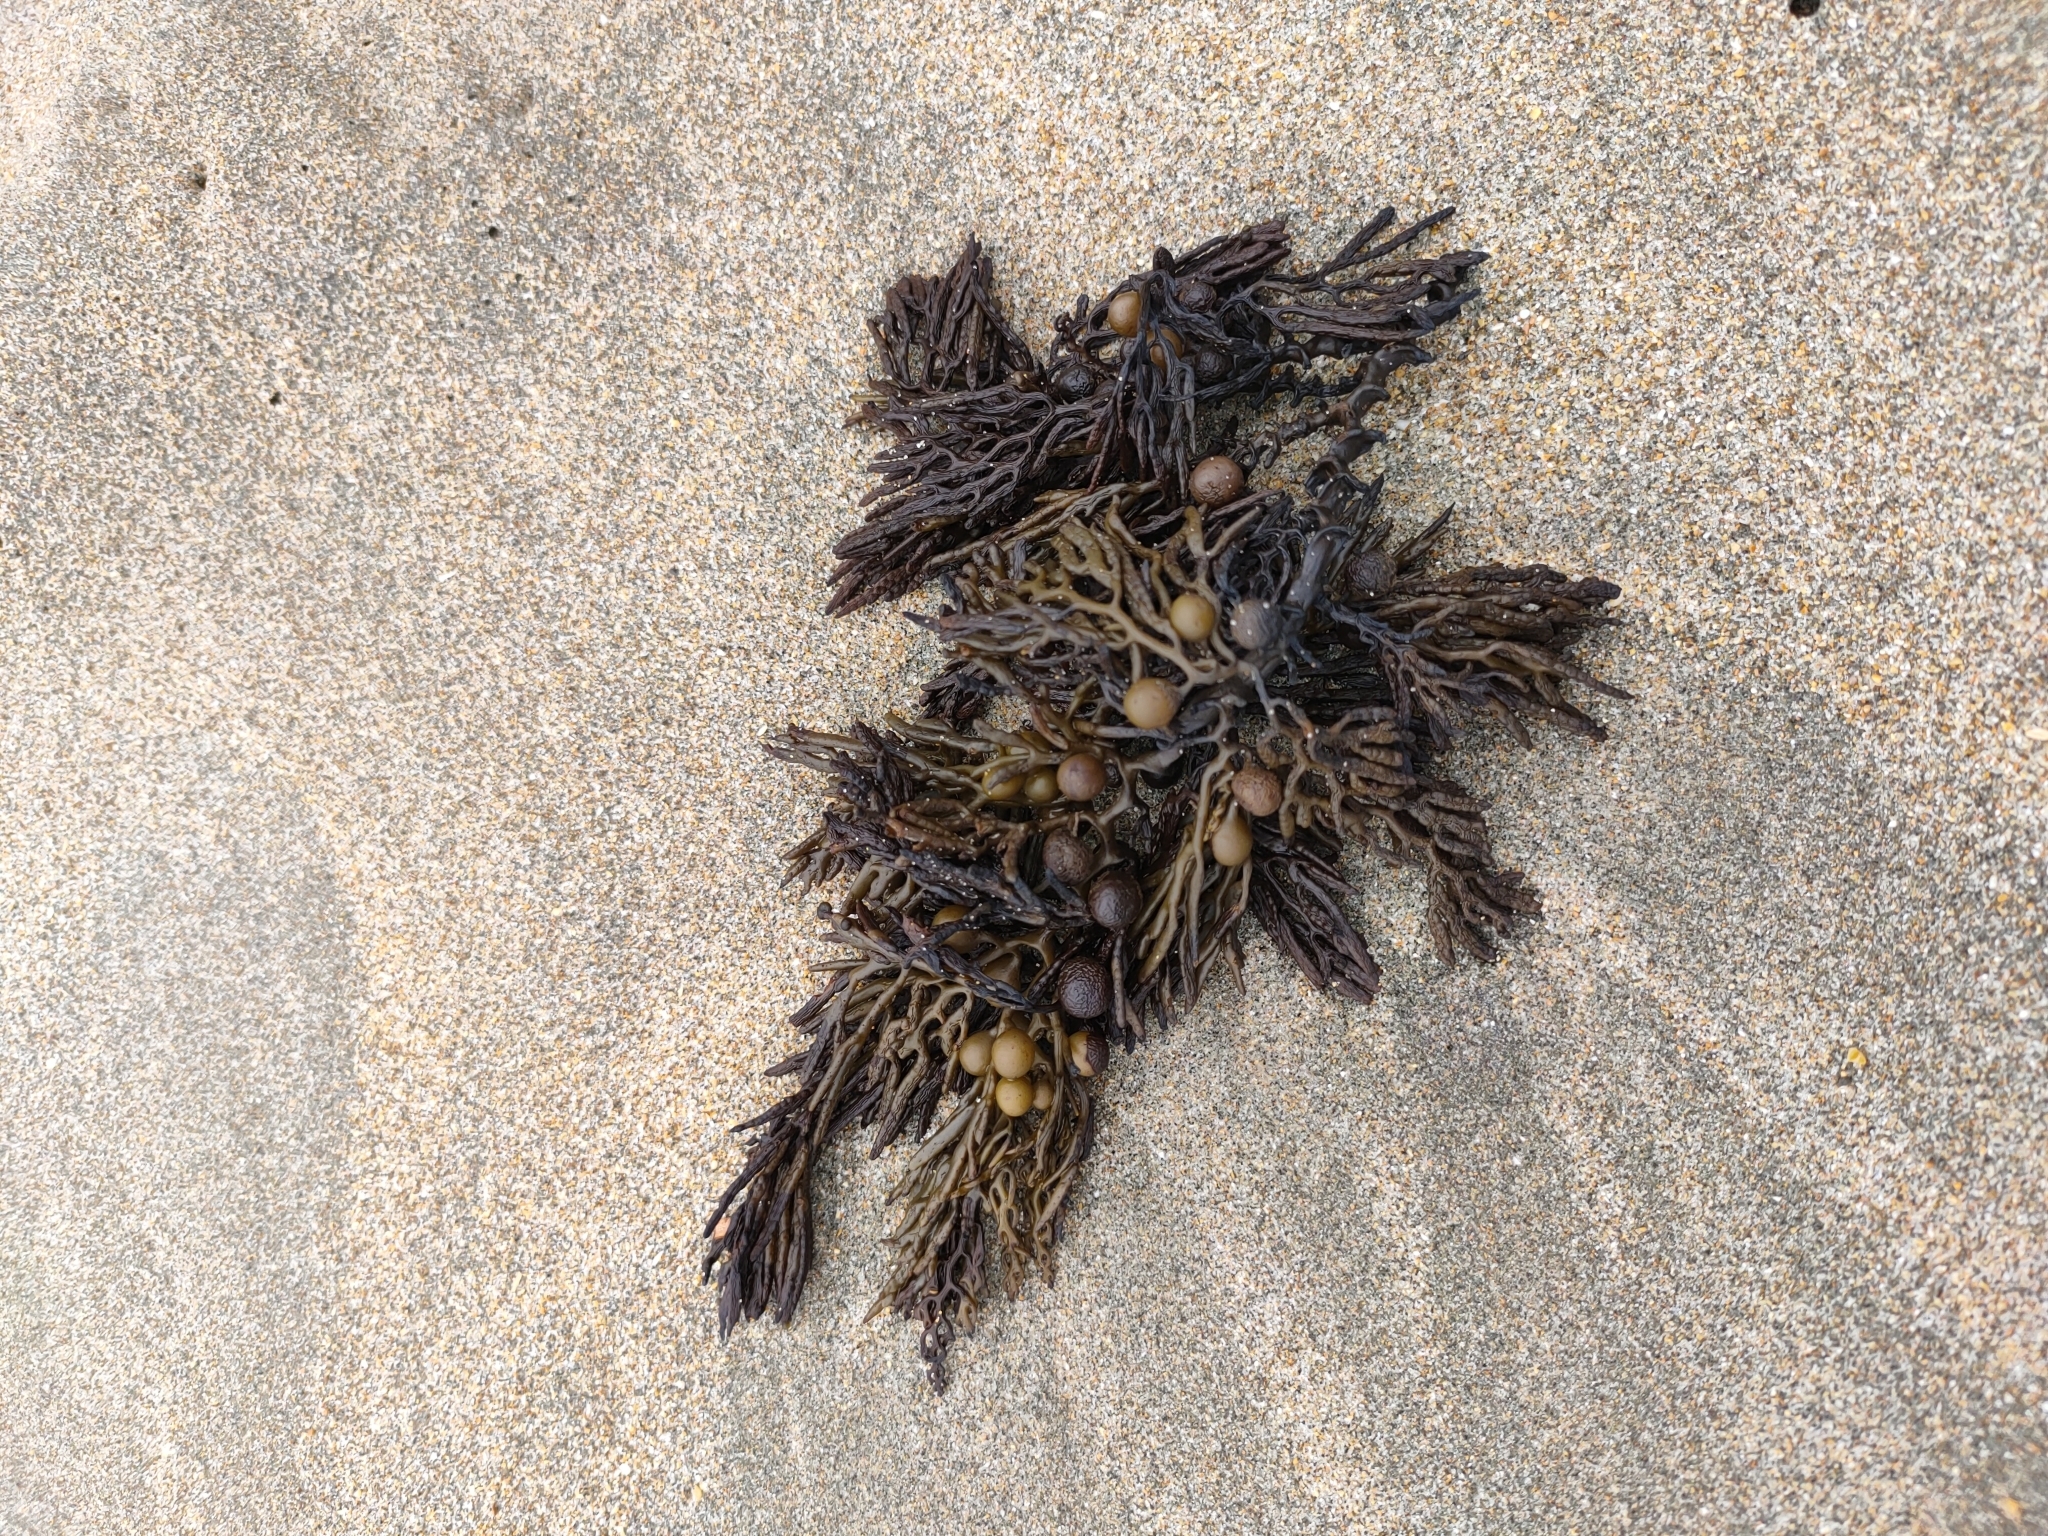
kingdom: Chromista
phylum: Ochrophyta
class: Phaeophyceae
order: Fucales
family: Sargassaceae
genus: Cystophora
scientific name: Cystophora retroflexa
